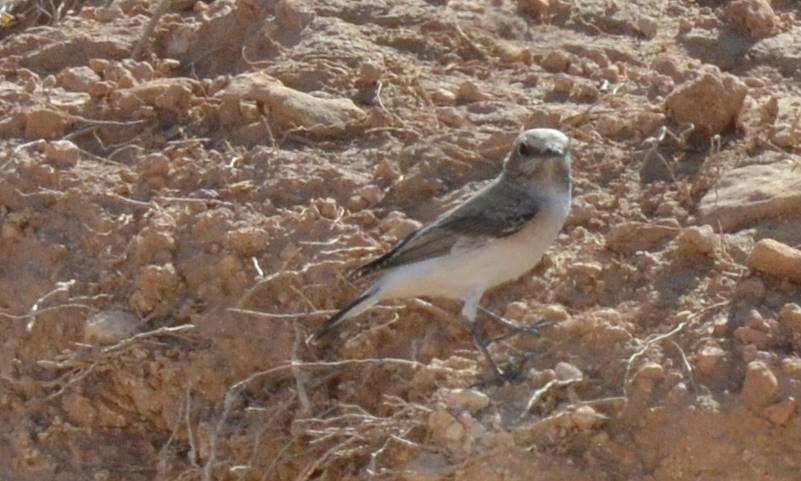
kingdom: Animalia
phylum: Chordata
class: Aves
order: Passeriformes
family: Muscicapidae
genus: Oenanthe
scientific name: Oenanthe lugens
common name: Mourning wheatear
